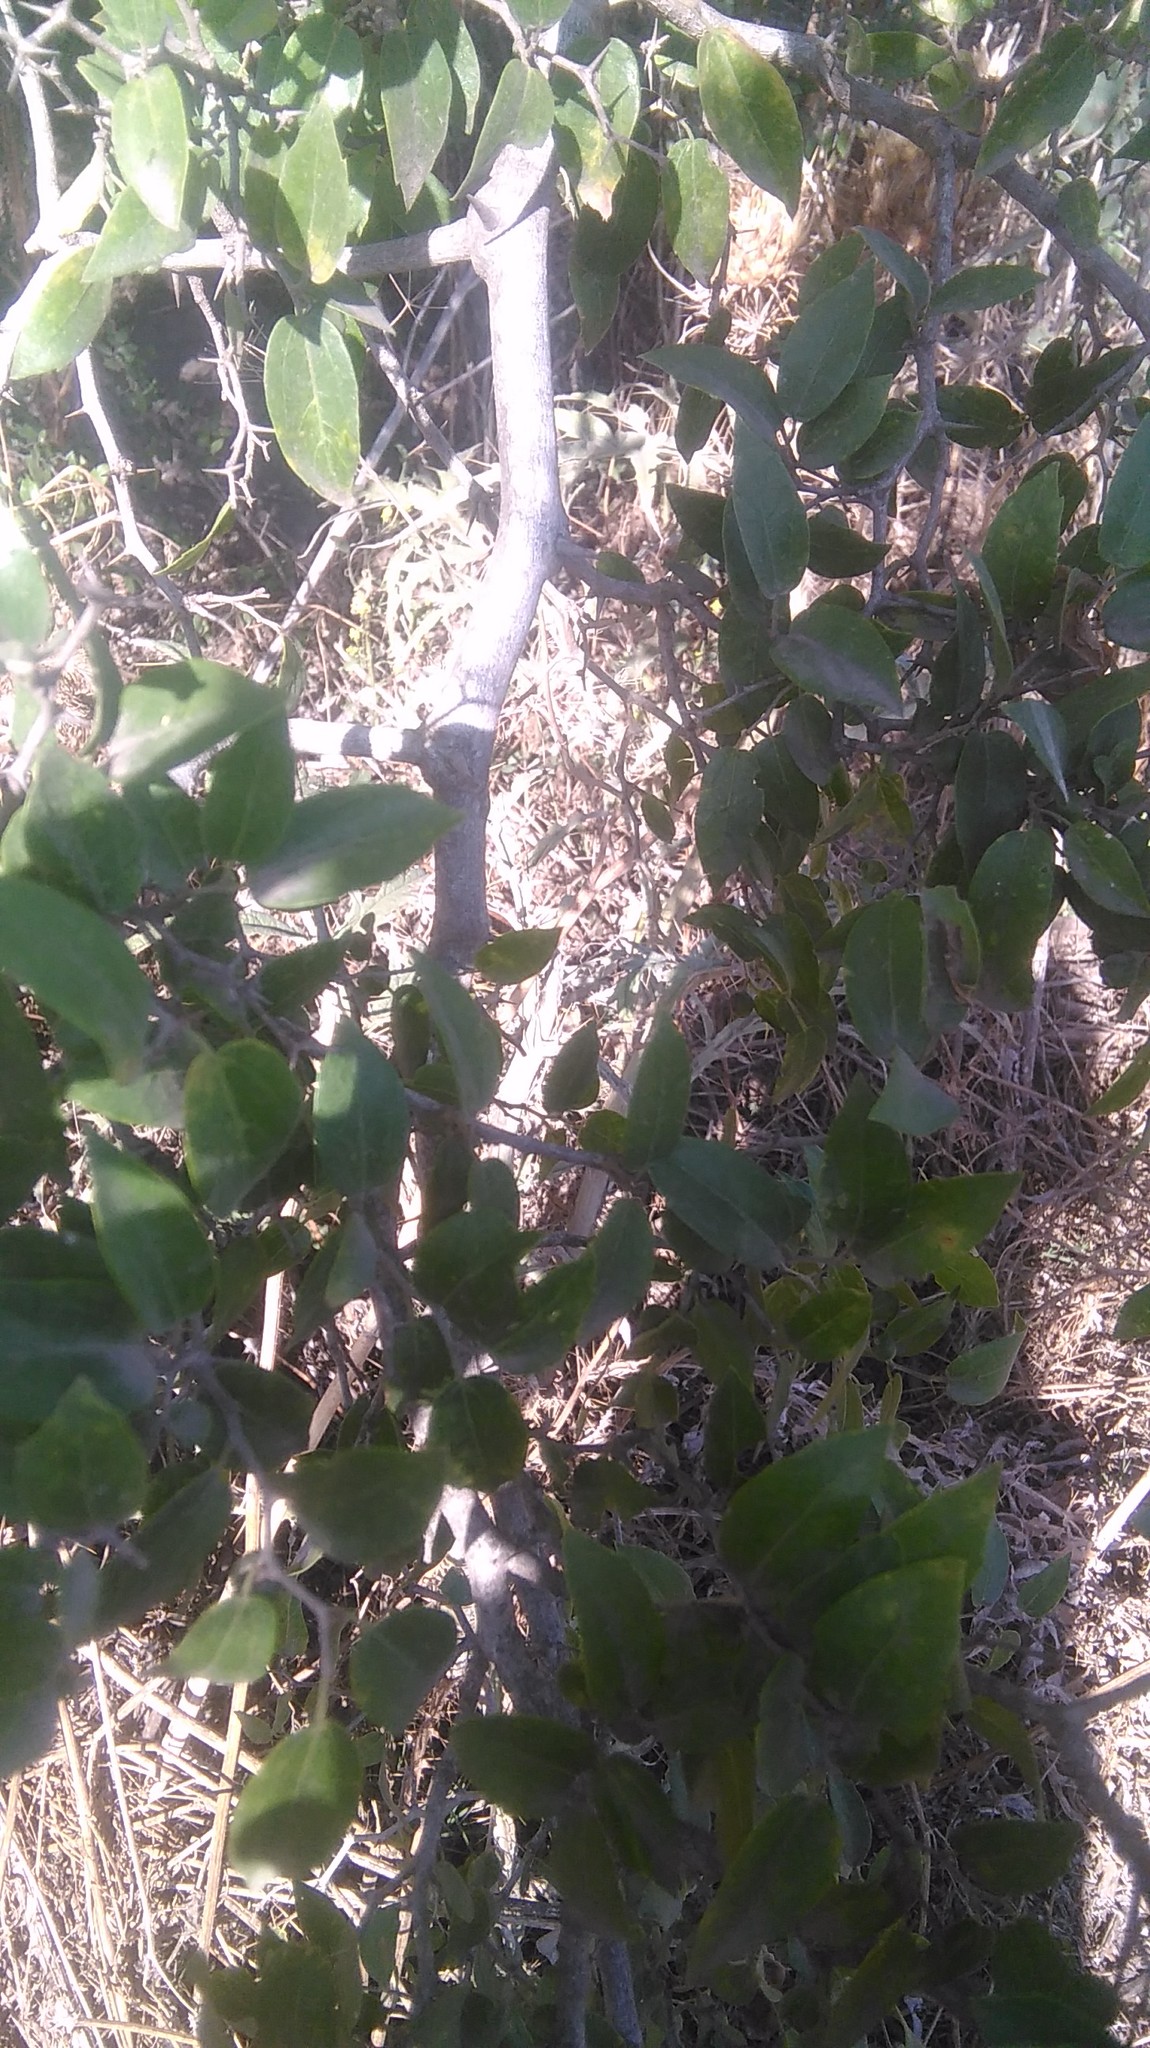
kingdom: Plantae
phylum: Tracheophyta
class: Magnoliopsida
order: Rosales
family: Cannabaceae
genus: Celtis
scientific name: Celtis tala
